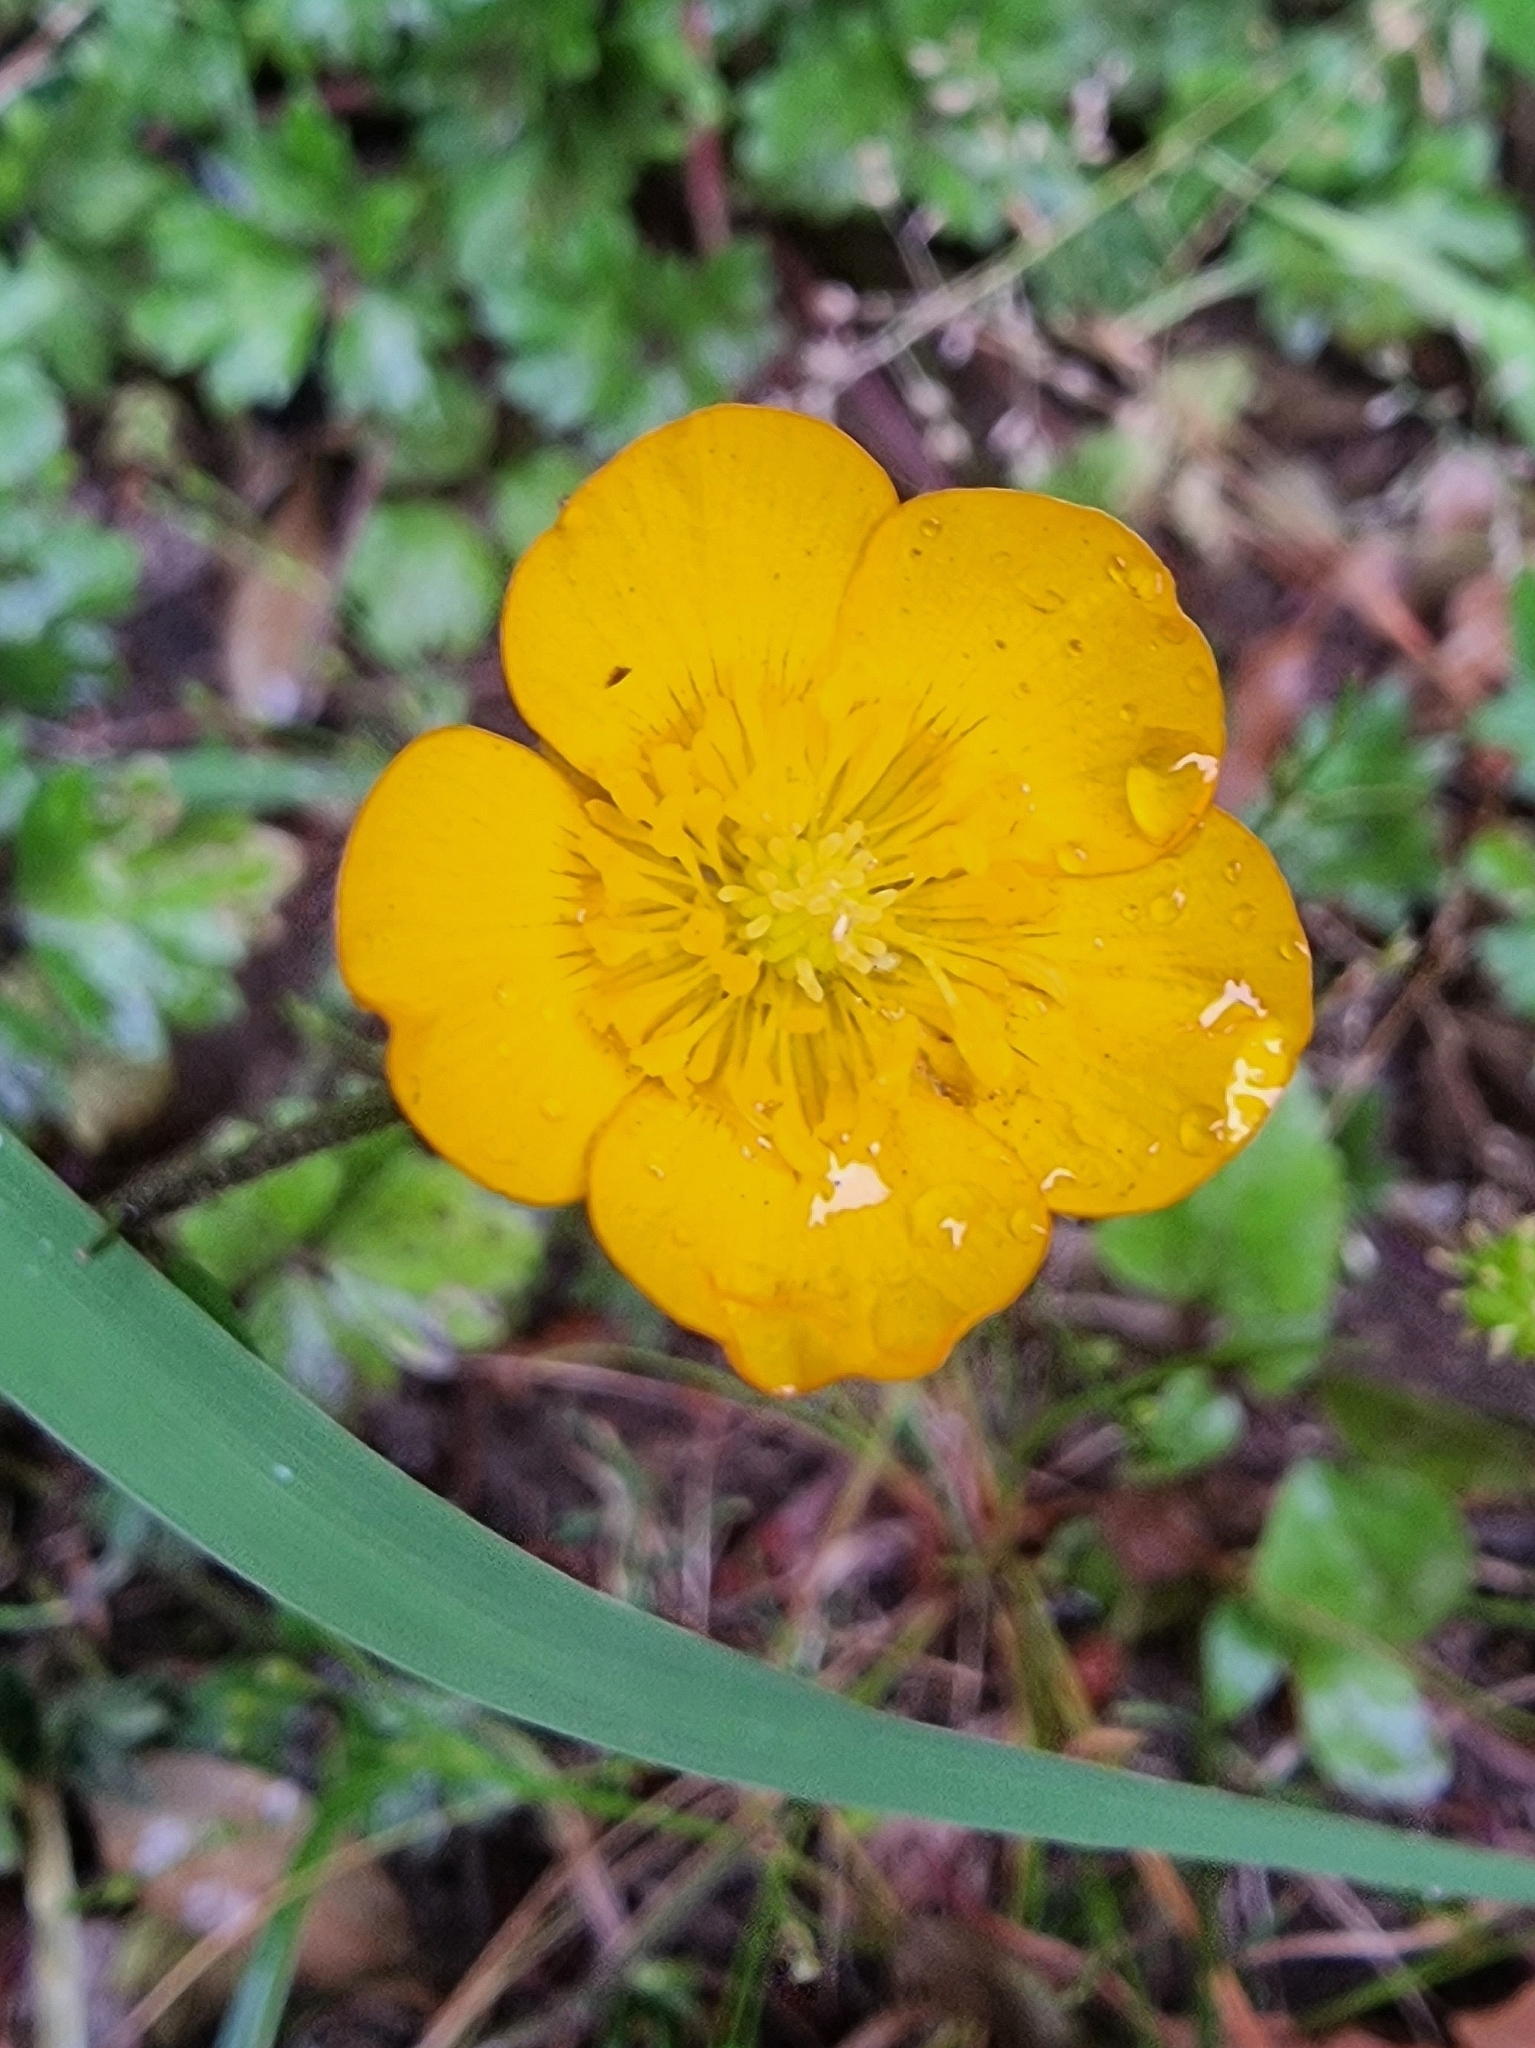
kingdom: Plantae
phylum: Tracheophyta
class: Magnoliopsida
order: Ranunculales
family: Ranunculaceae
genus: Ranunculus
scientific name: Ranunculus repens
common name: Creeping buttercup
